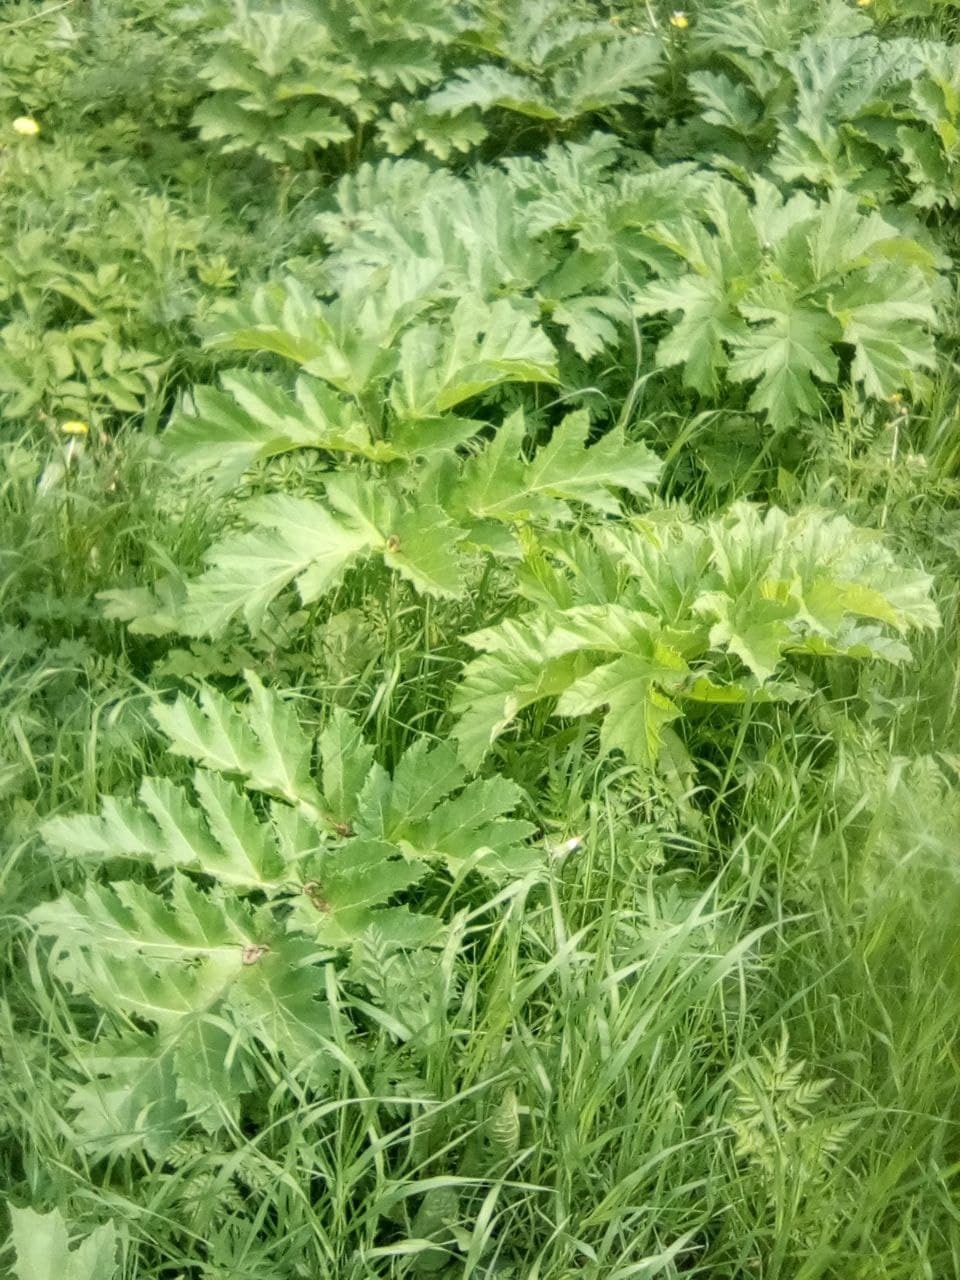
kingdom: Plantae
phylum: Tracheophyta
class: Magnoliopsida
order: Apiales
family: Apiaceae
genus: Heracleum
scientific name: Heracleum sosnowskyi
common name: Sosnowsky's hogweed
